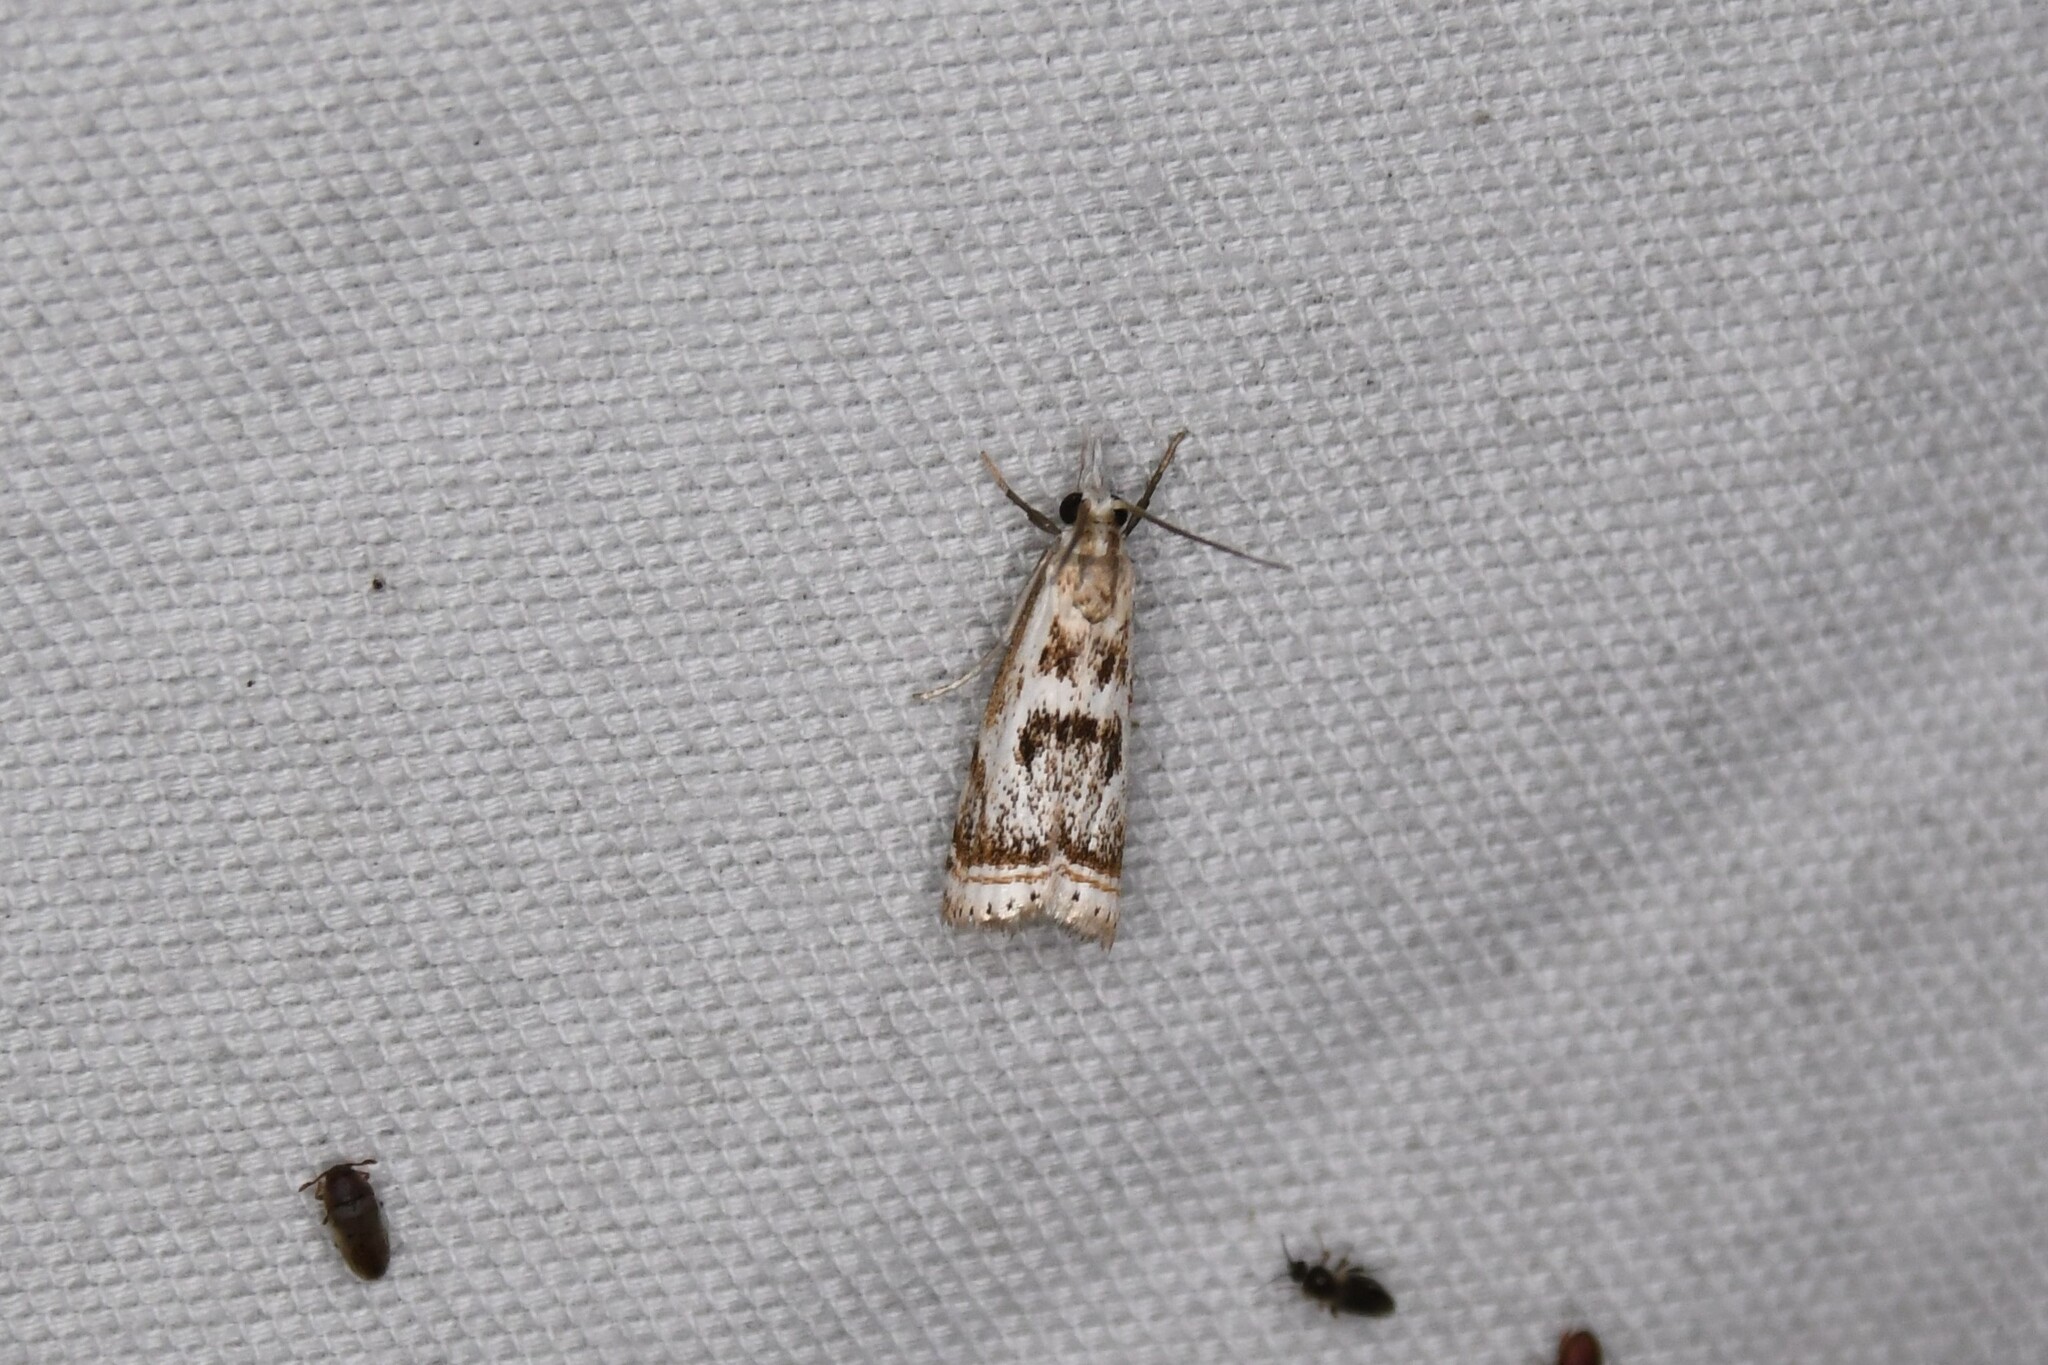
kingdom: Animalia
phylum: Arthropoda
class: Insecta
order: Lepidoptera
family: Crambidae
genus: Microcrambus
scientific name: Microcrambus elegans
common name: Elegant grass-veneer
